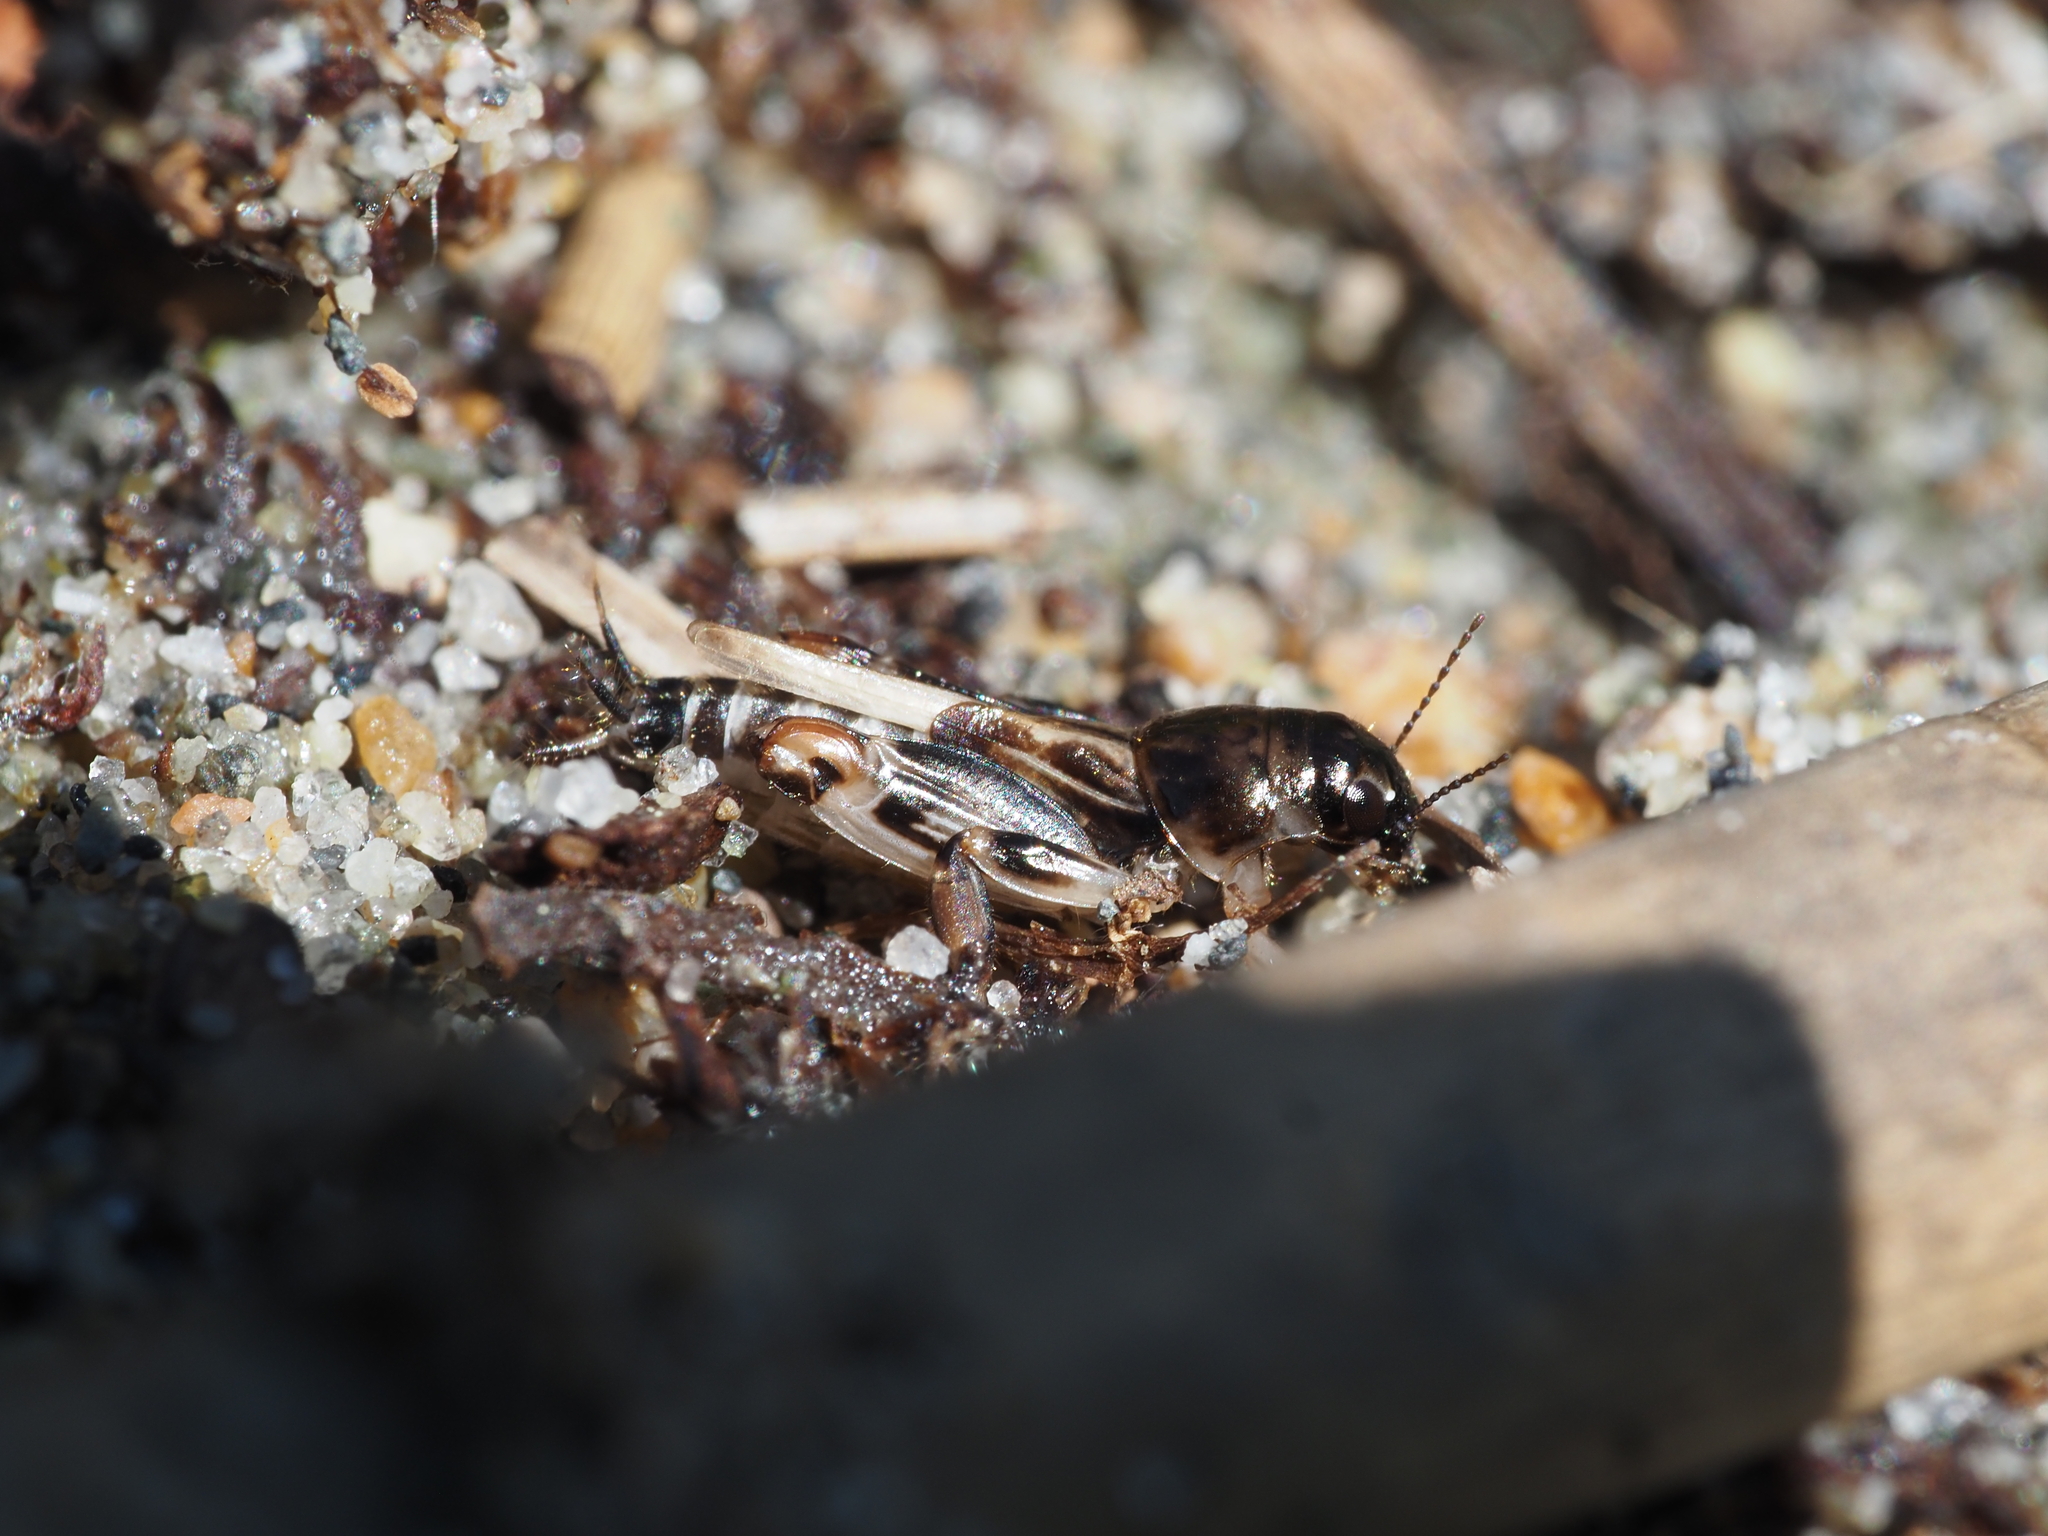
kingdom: Animalia
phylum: Arthropoda
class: Insecta
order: Orthoptera
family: Tridactylidae
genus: Neotridactylus
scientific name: Neotridactylus apicialis
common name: Larger pygmy locust
